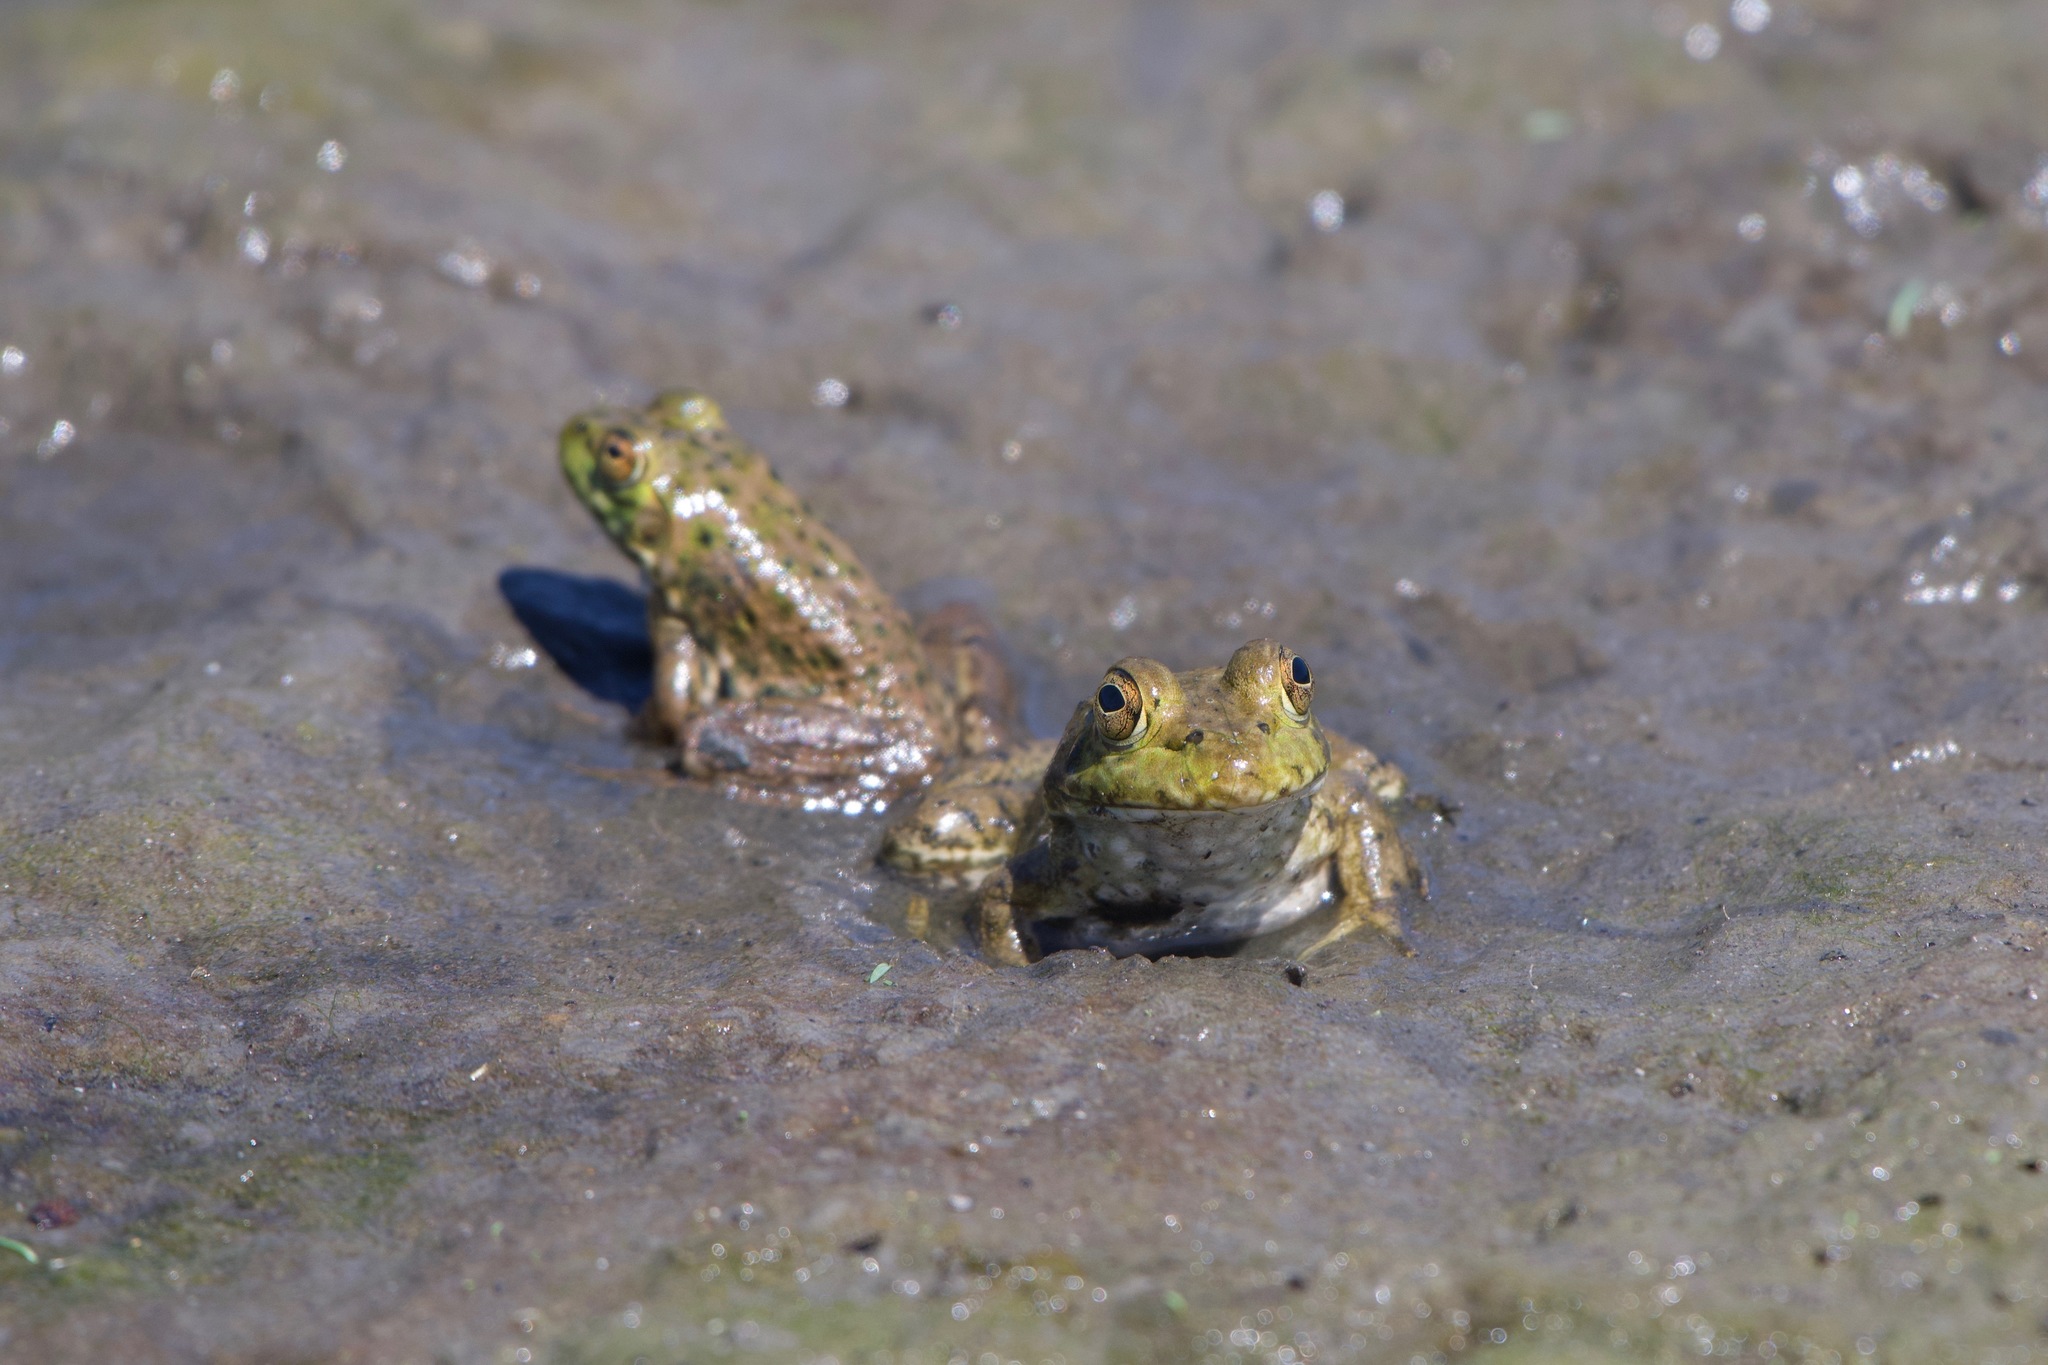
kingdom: Animalia
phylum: Chordata
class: Amphibia
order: Anura
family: Ranidae
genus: Lithobates
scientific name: Lithobates catesbeianus
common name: American bullfrog
